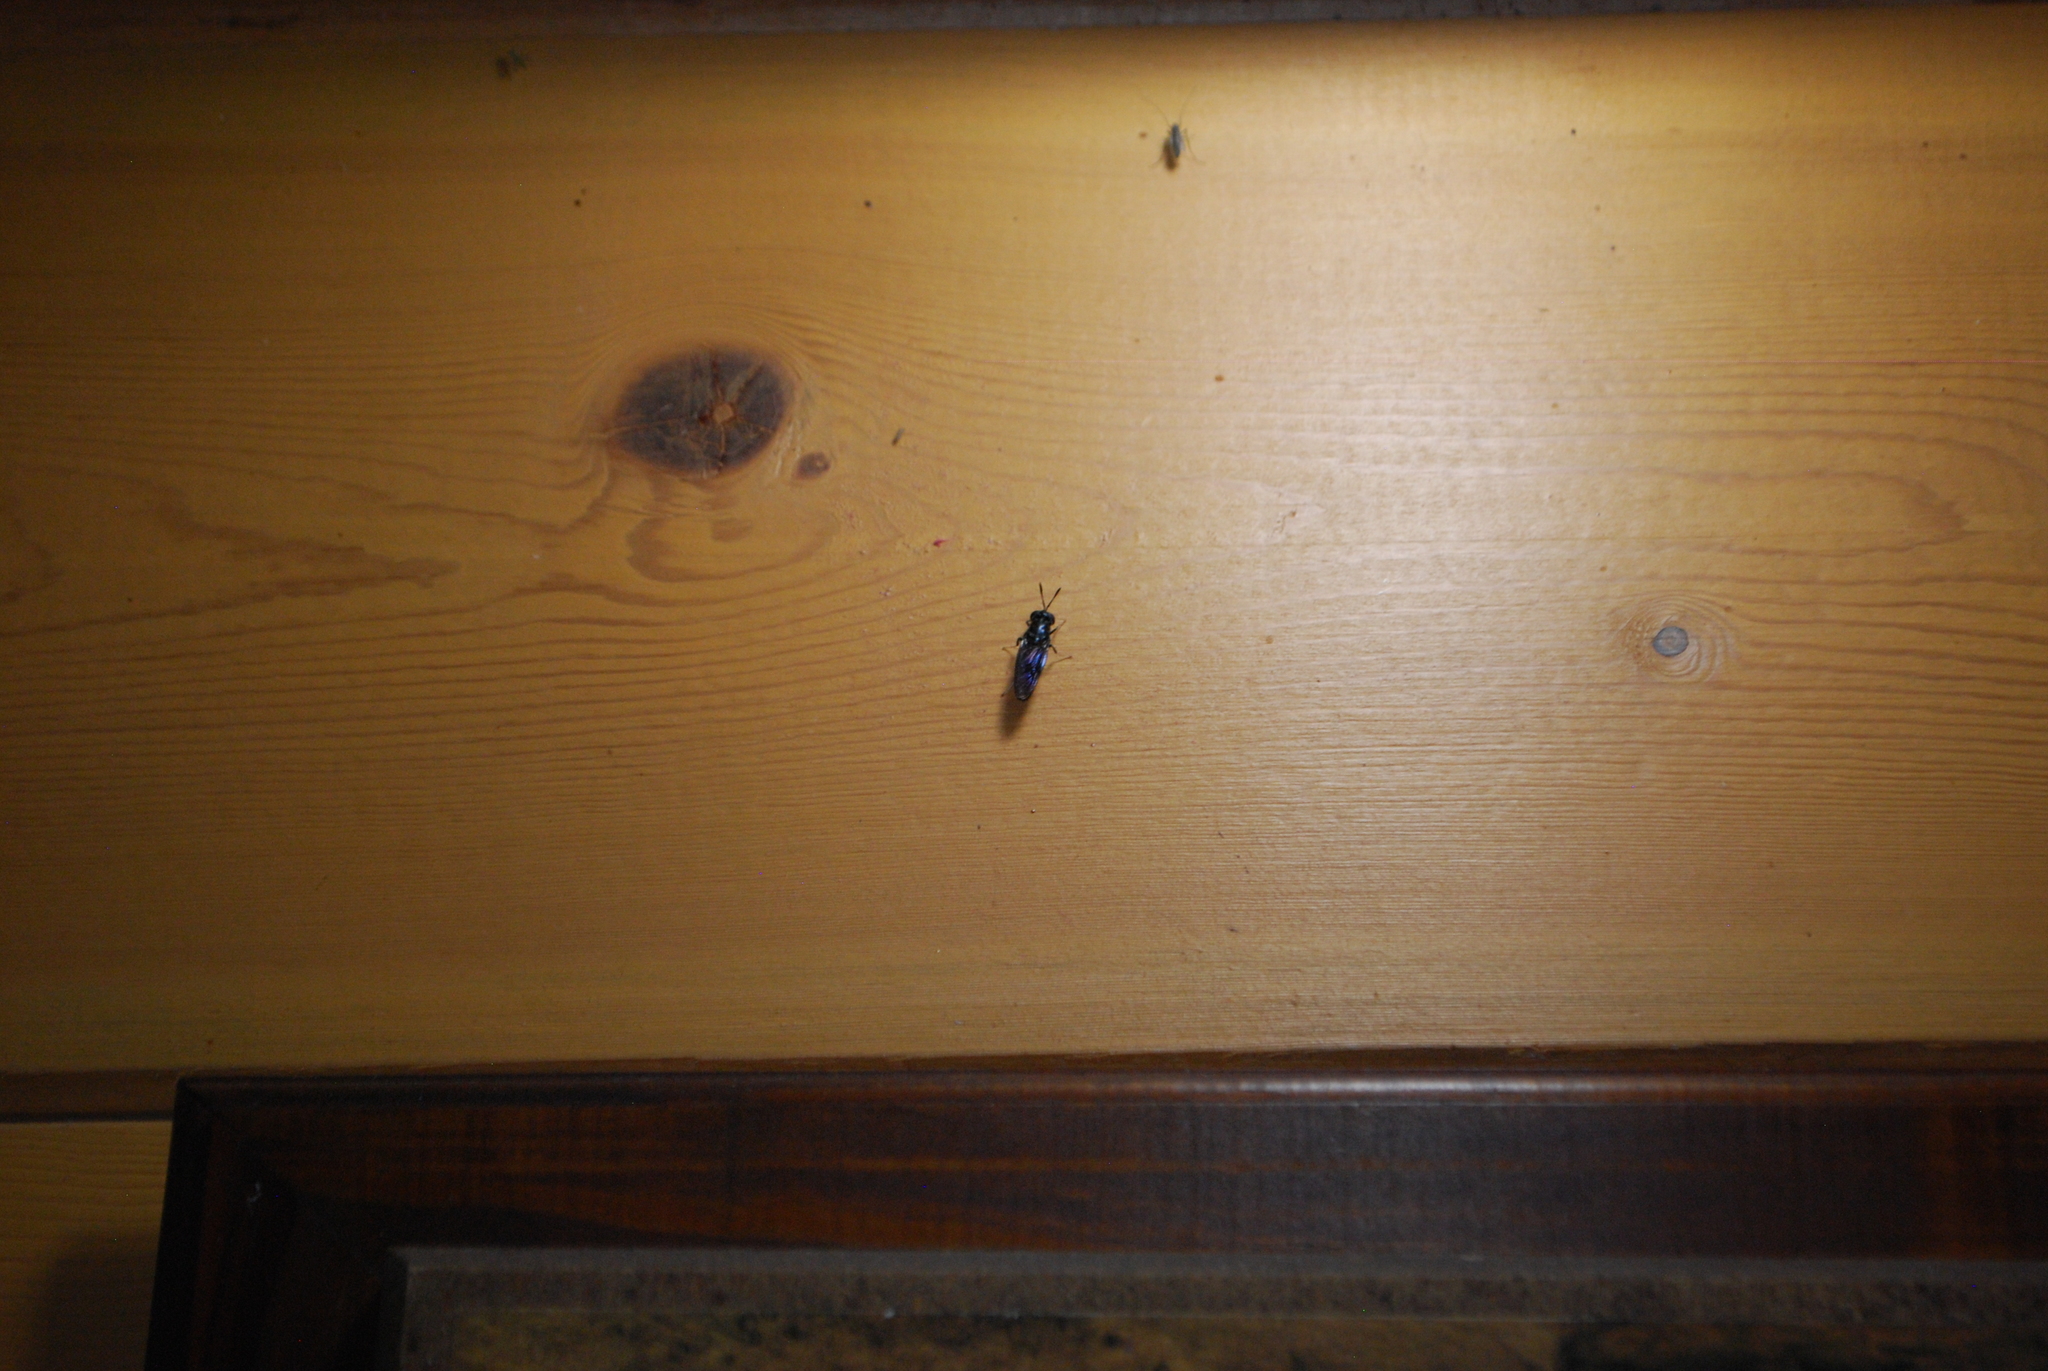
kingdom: Animalia
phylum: Arthropoda
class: Insecta
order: Diptera
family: Stratiomyidae
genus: Hermetia
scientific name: Hermetia illucens
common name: Black soldier fly
